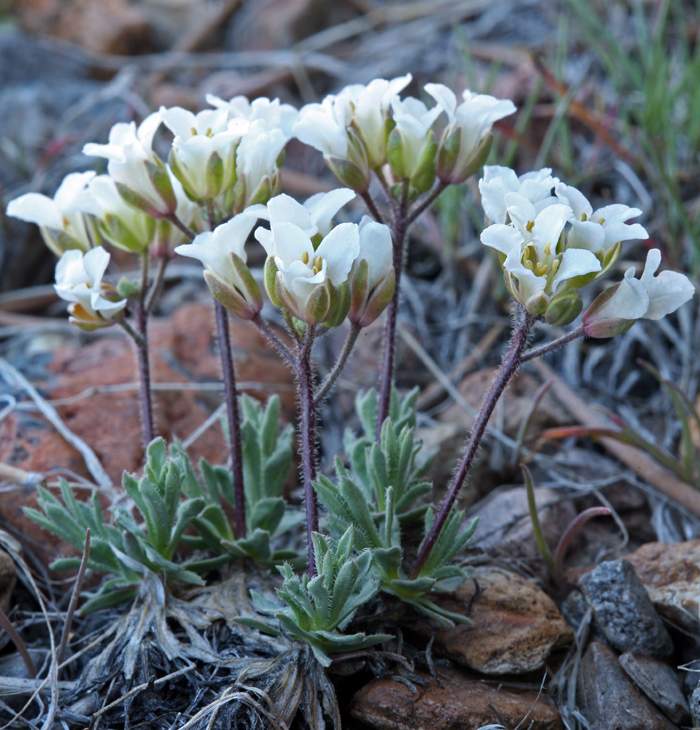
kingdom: Plantae
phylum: Tracheophyta
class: Magnoliopsida
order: Brassicales
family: Brassicaceae
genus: Cusickiella
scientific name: Cusickiella douglasii
